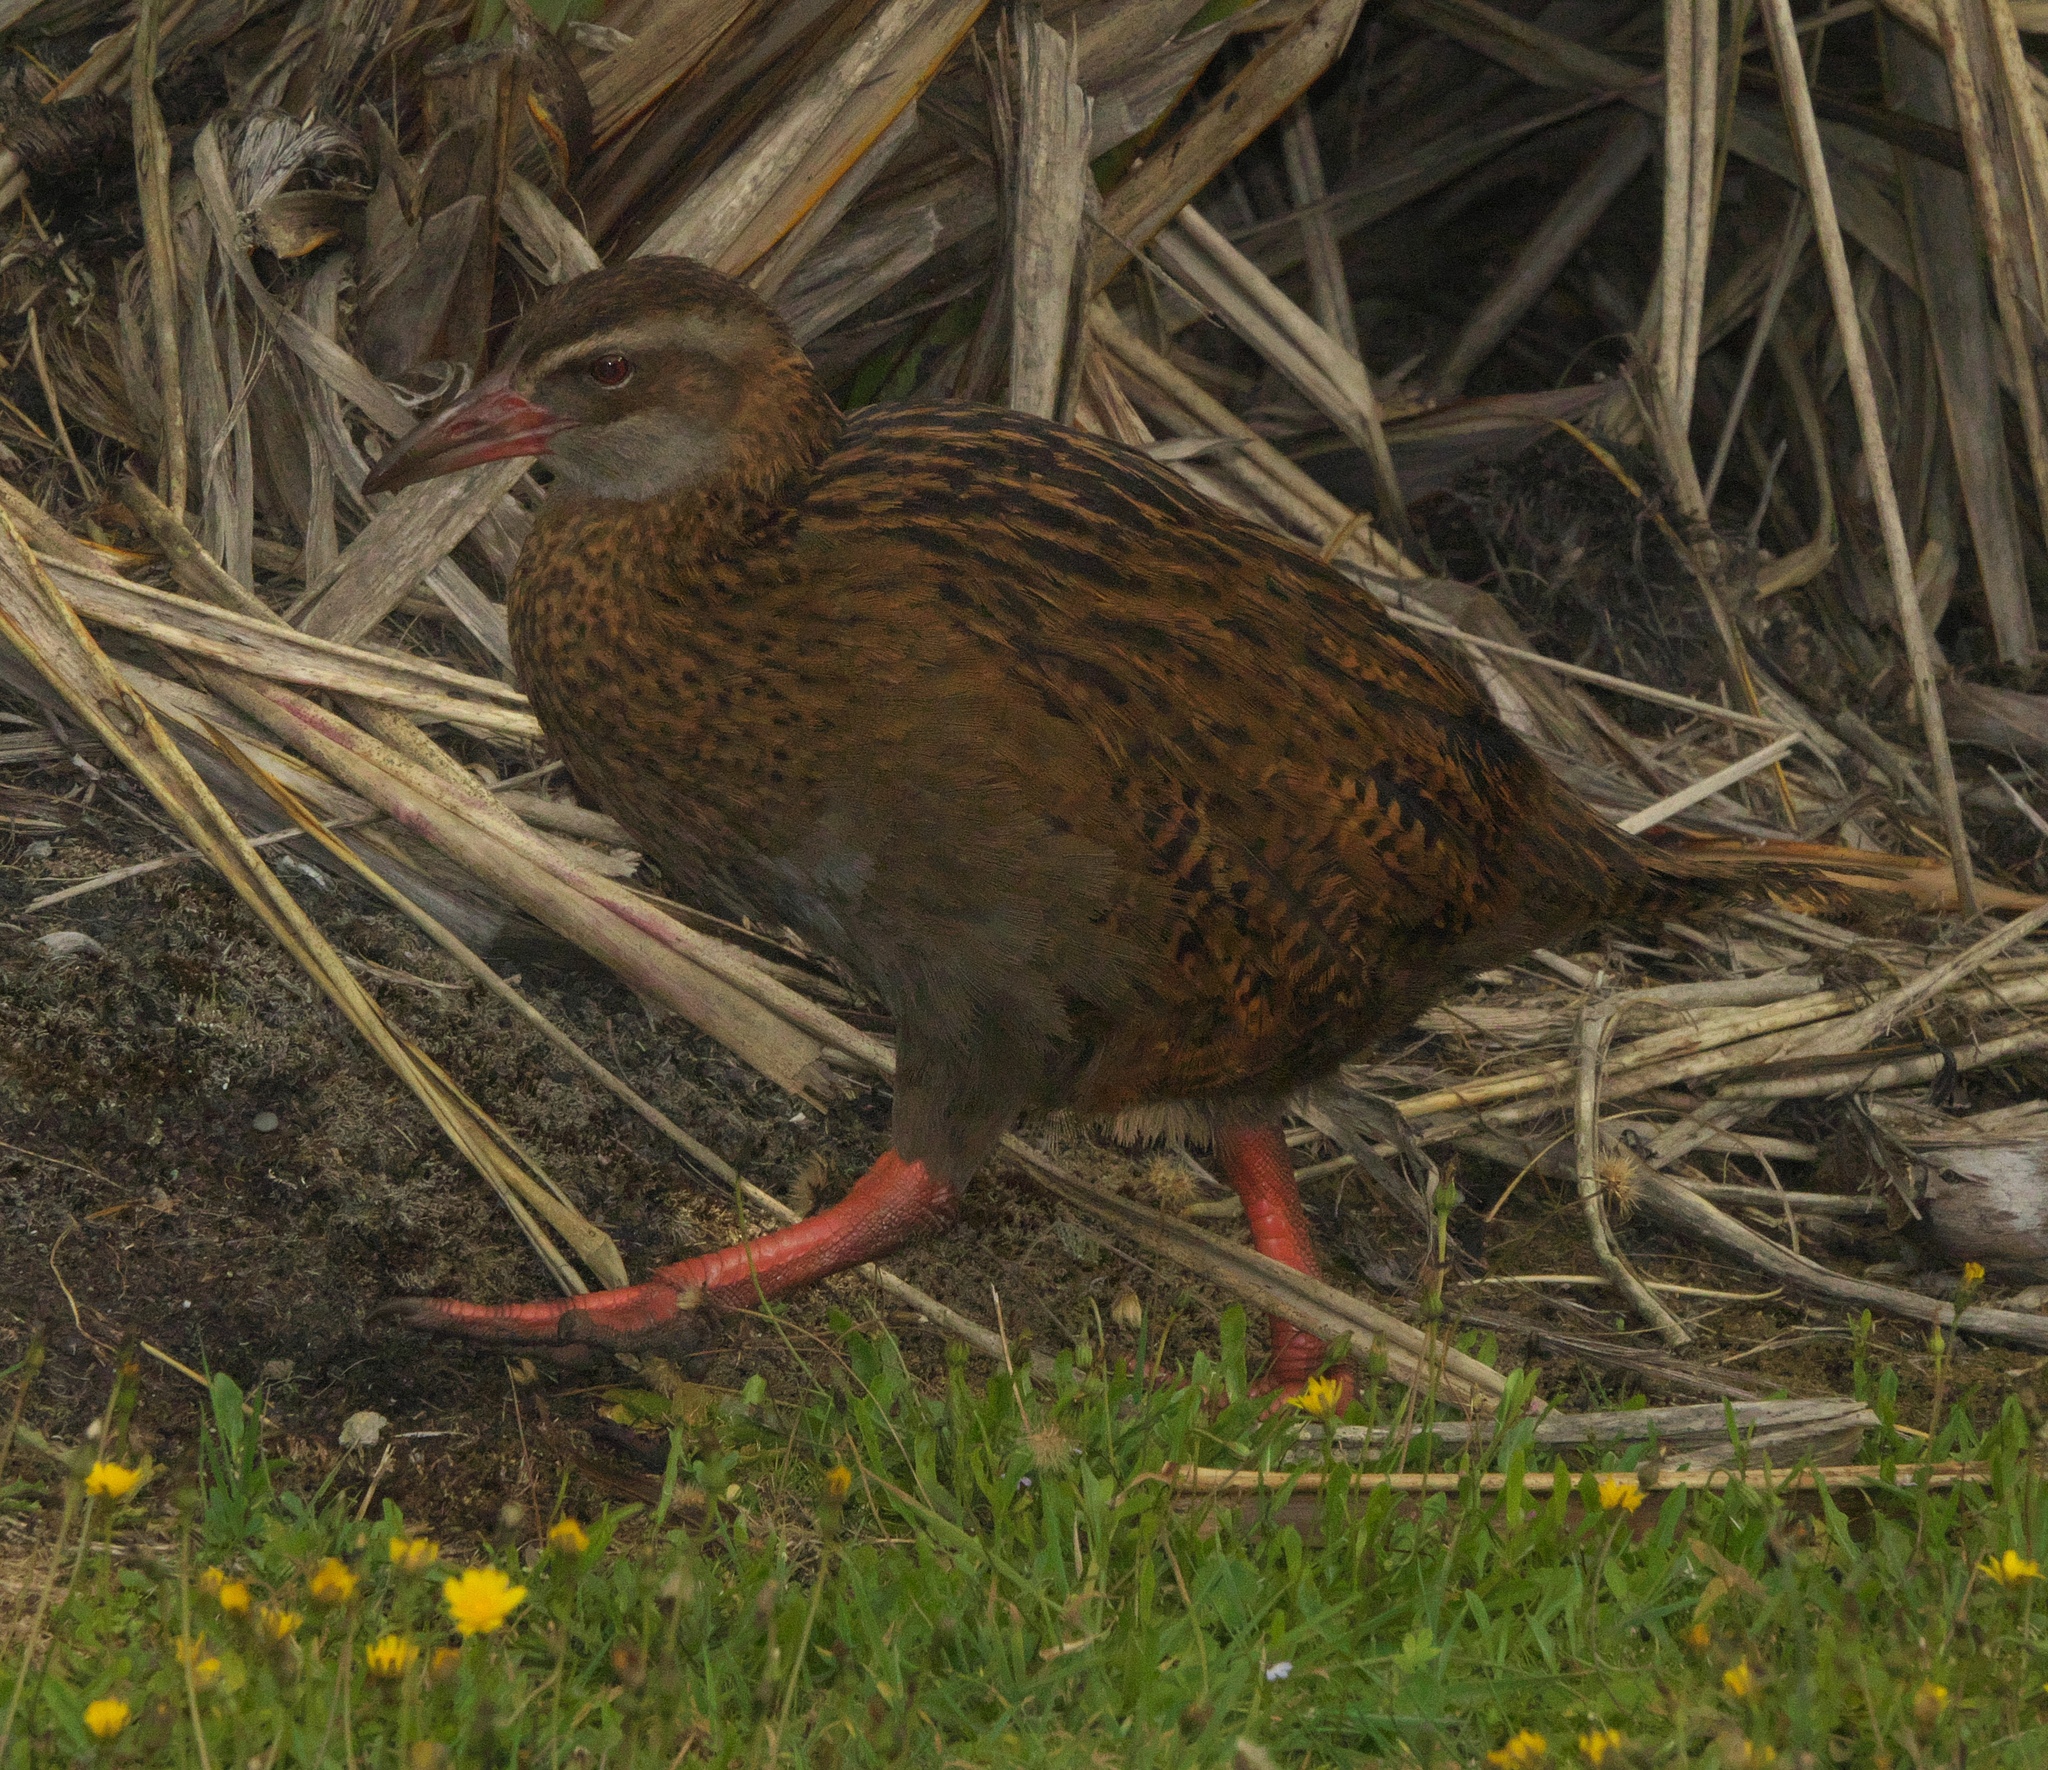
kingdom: Animalia
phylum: Chordata
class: Aves
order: Gruiformes
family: Rallidae
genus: Gallirallus
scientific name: Gallirallus australis
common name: Weka
